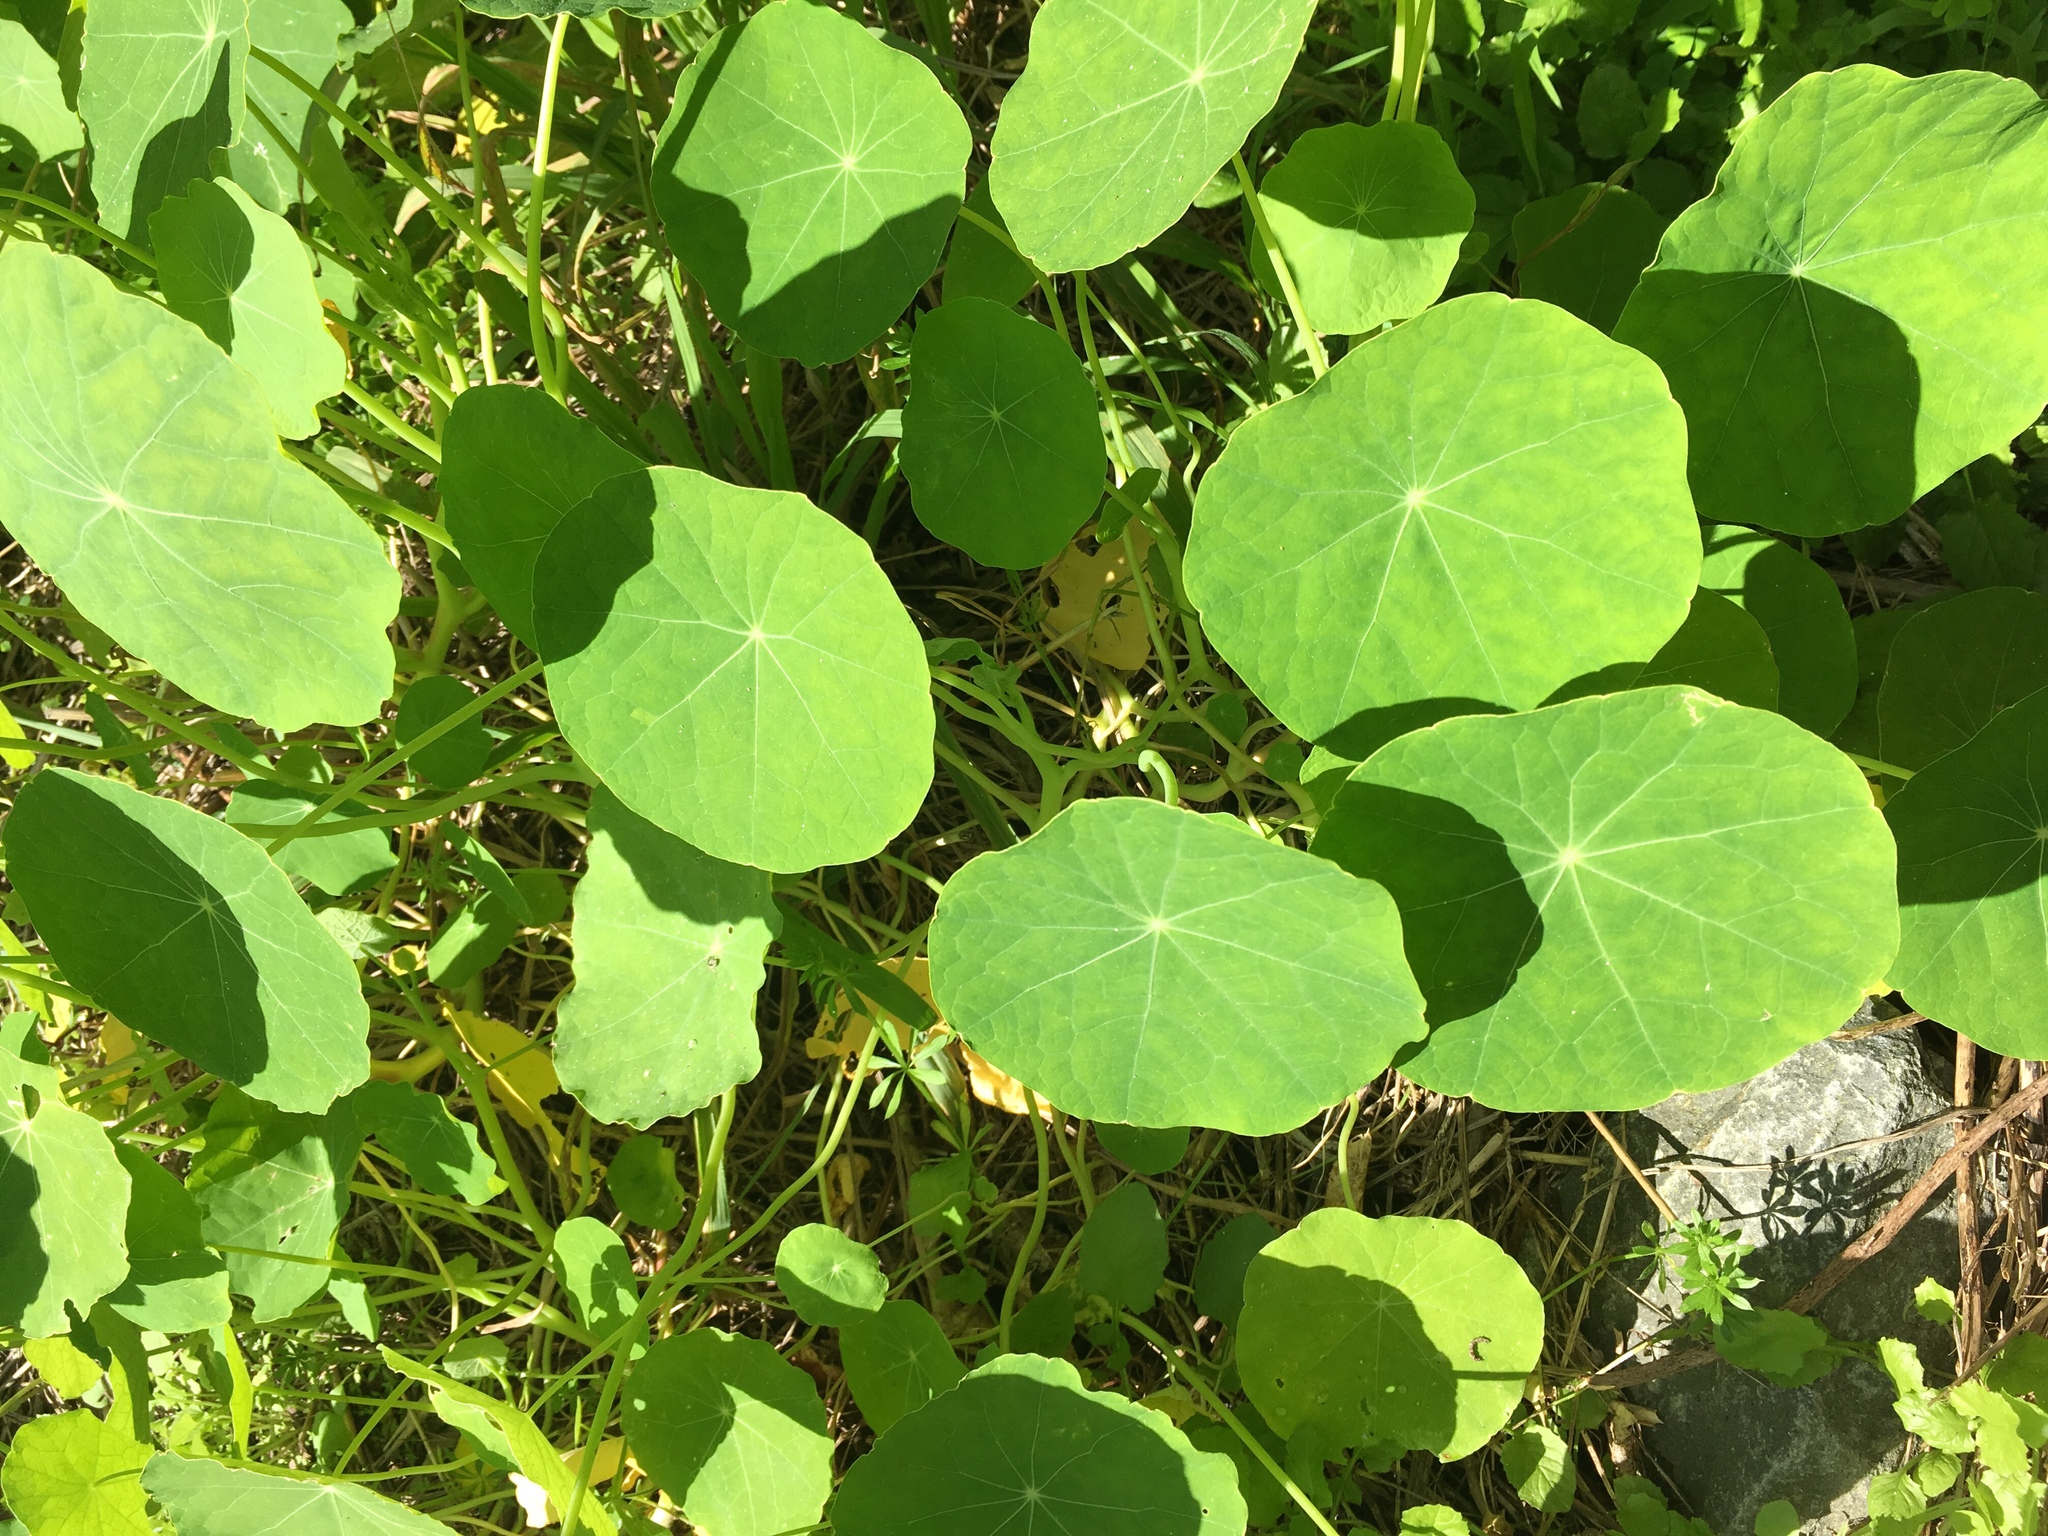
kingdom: Plantae
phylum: Tracheophyta
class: Magnoliopsida
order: Brassicales
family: Tropaeolaceae
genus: Tropaeolum
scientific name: Tropaeolum majus
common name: Nasturtium
